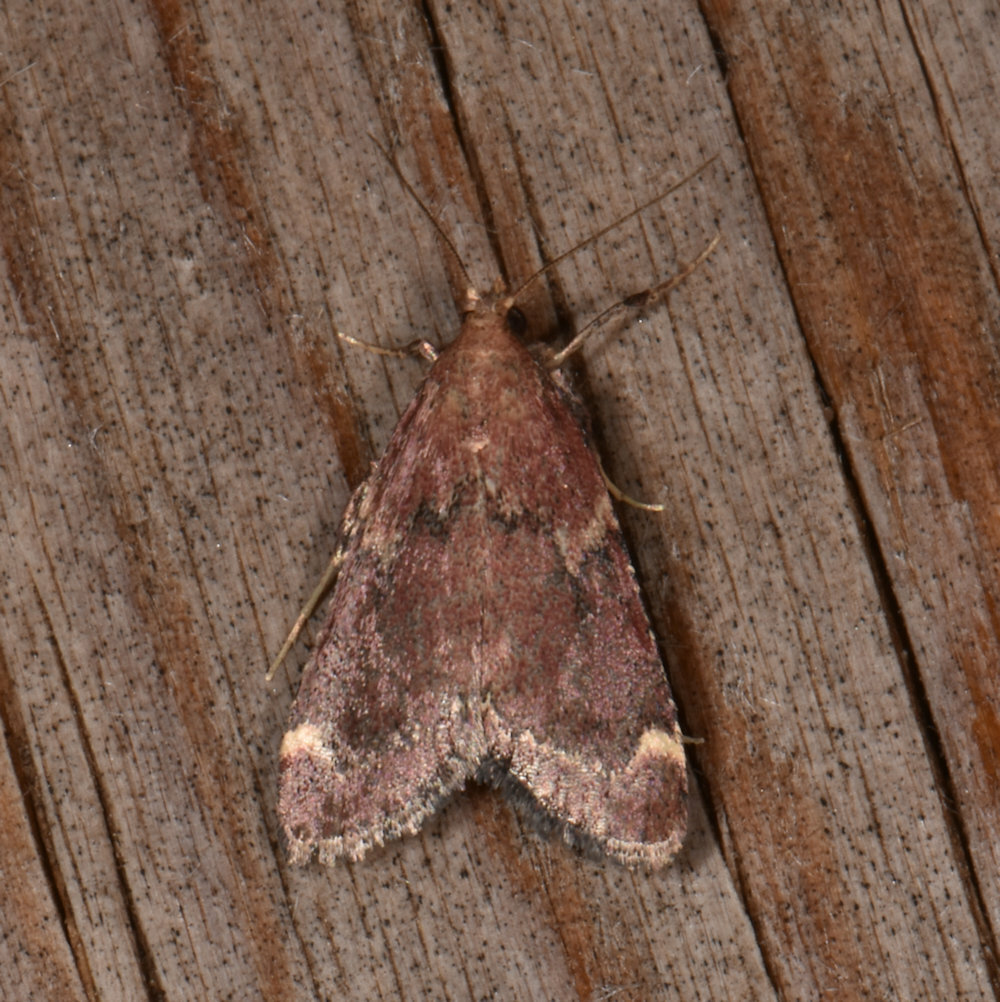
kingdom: Animalia
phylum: Arthropoda
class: Insecta
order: Lepidoptera
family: Pyralidae
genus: Hypsopygia
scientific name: Hypsopygia intermedialis
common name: Red-shawled moth
